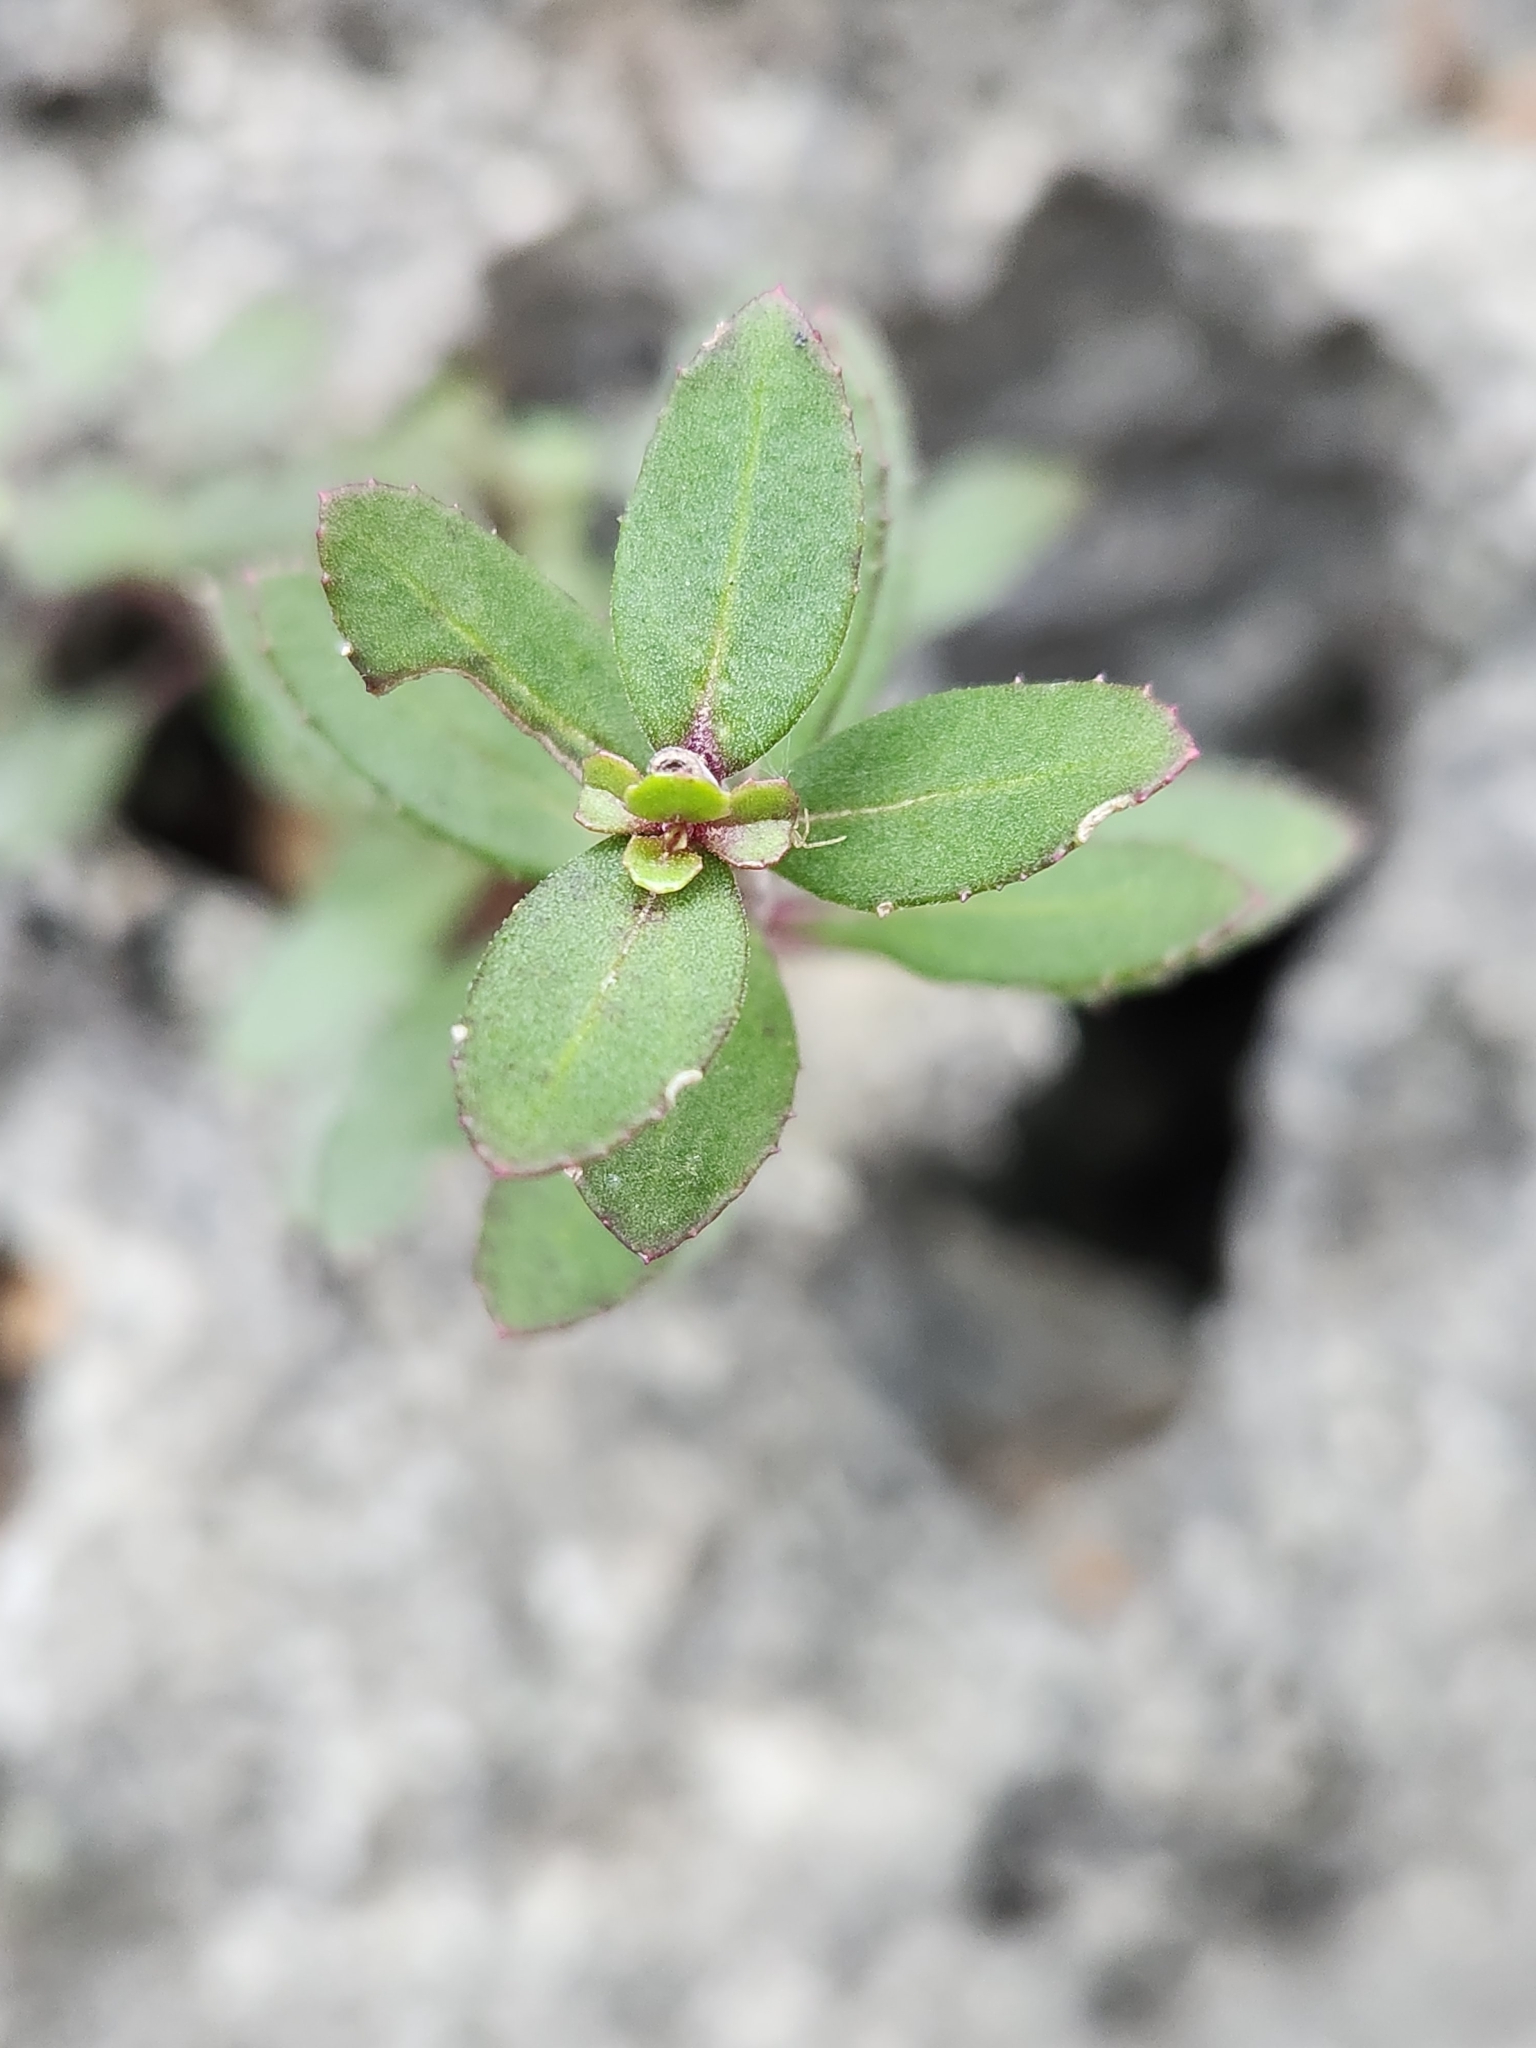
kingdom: Plantae
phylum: Tracheophyta
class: Magnoliopsida
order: Lamiales
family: Plantaginaceae
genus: Penstemon
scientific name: Penstemon baccharifolius
